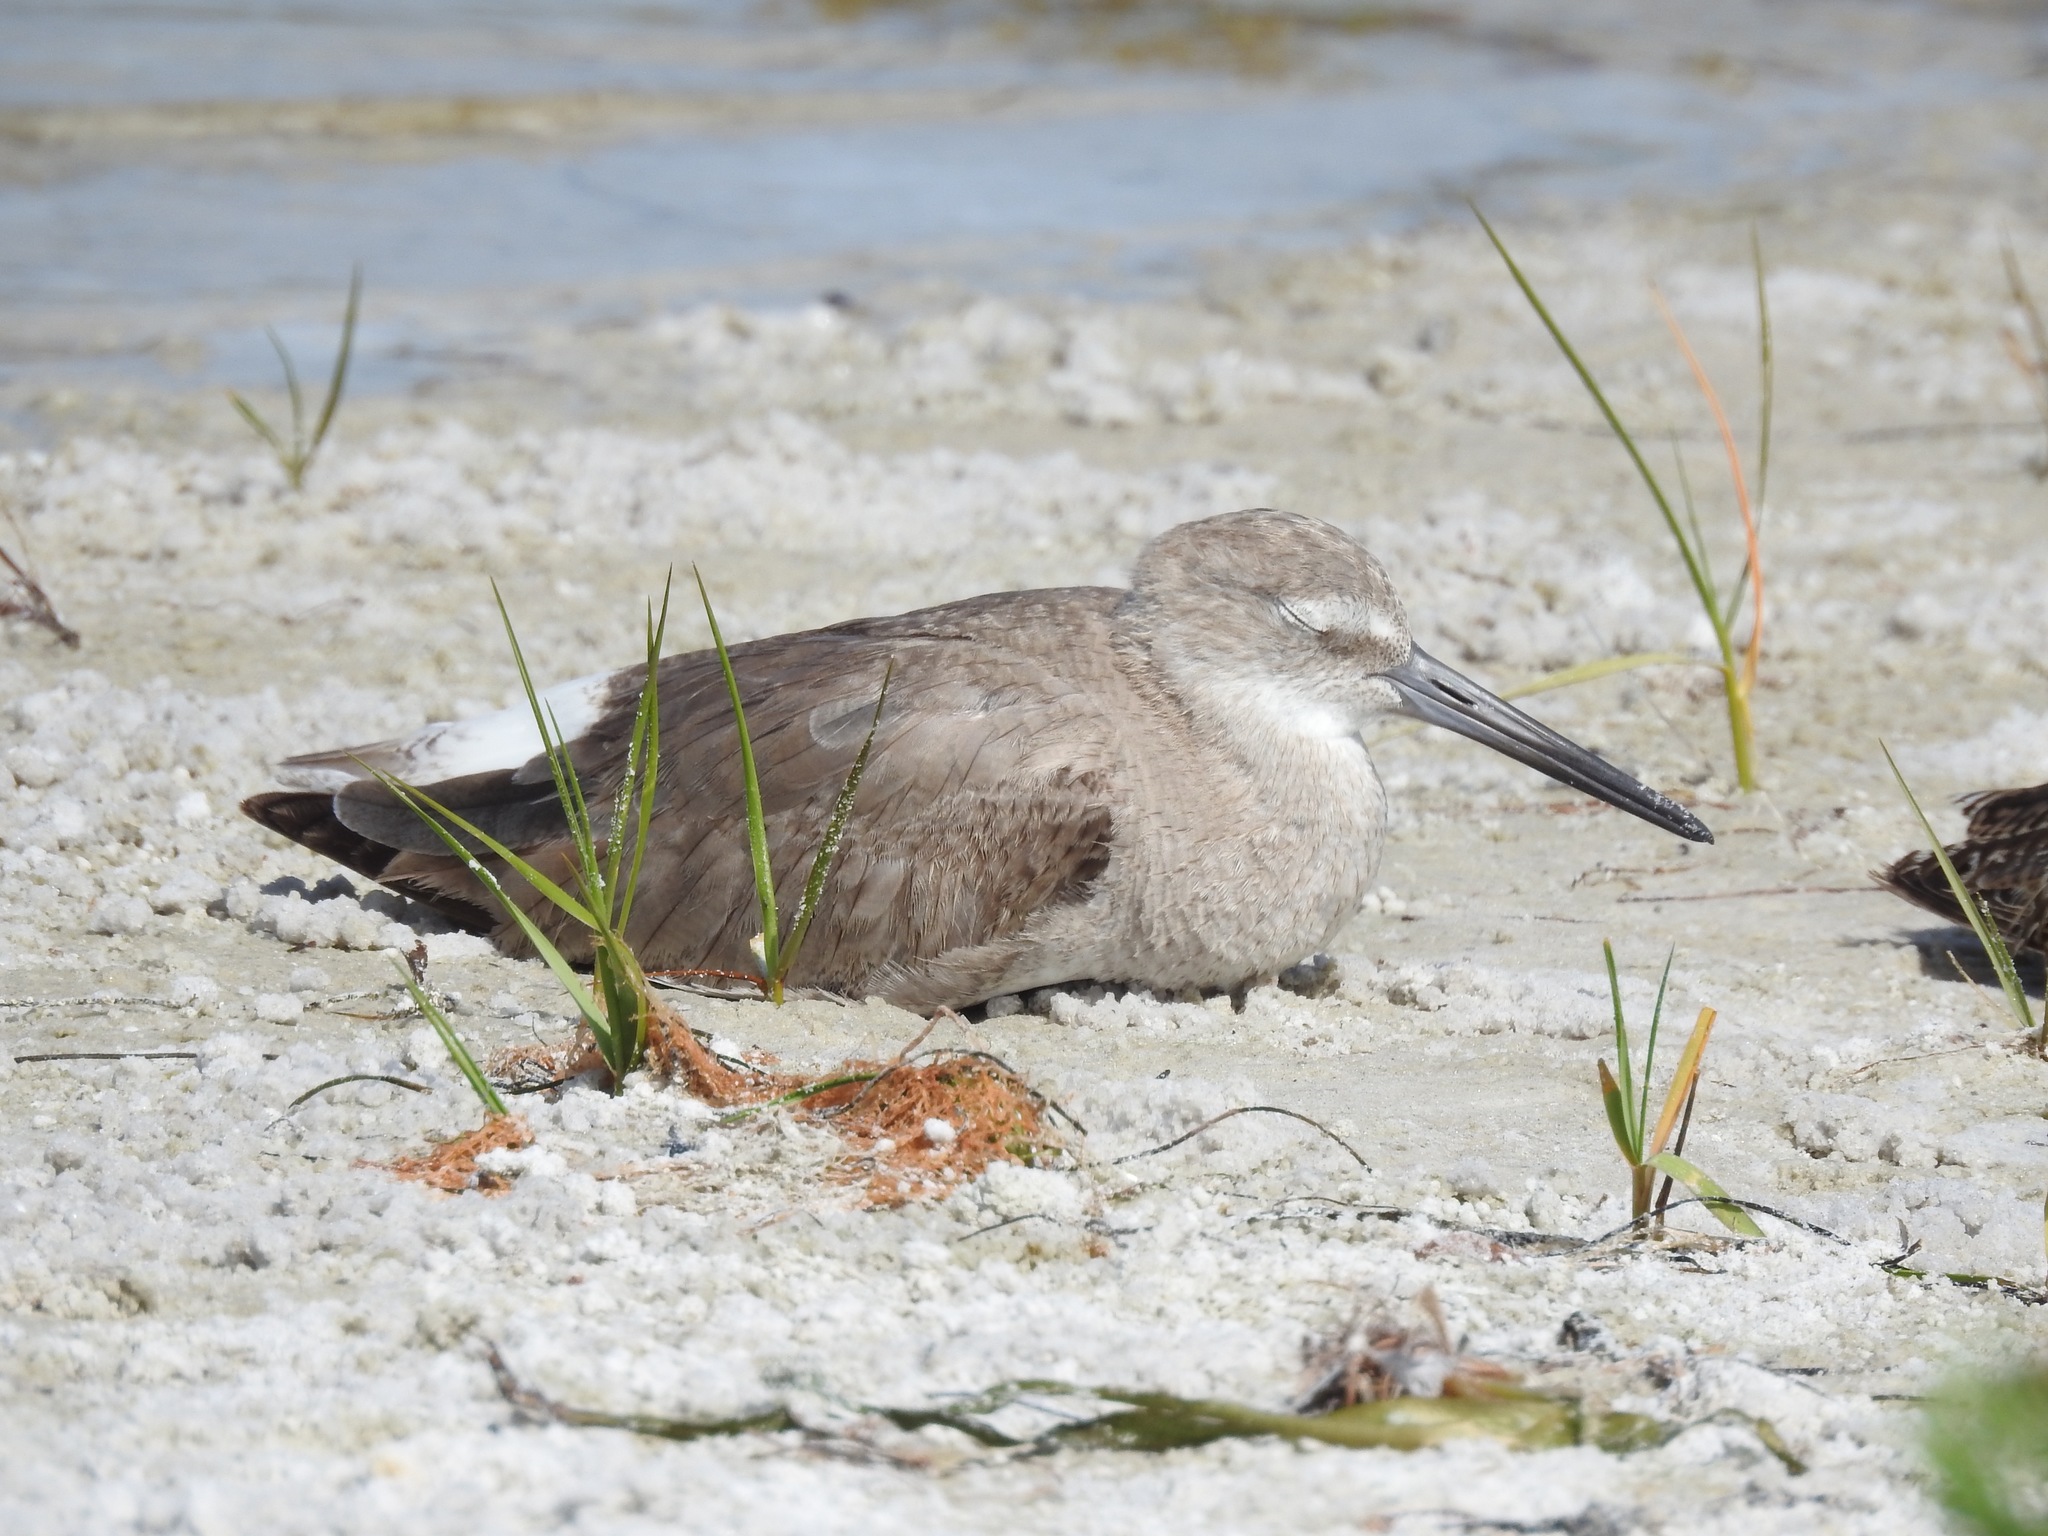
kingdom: Animalia
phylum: Chordata
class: Aves
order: Charadriiformes
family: Scolopacidae
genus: Tringa
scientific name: Tringa semipalmata
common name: Willet
